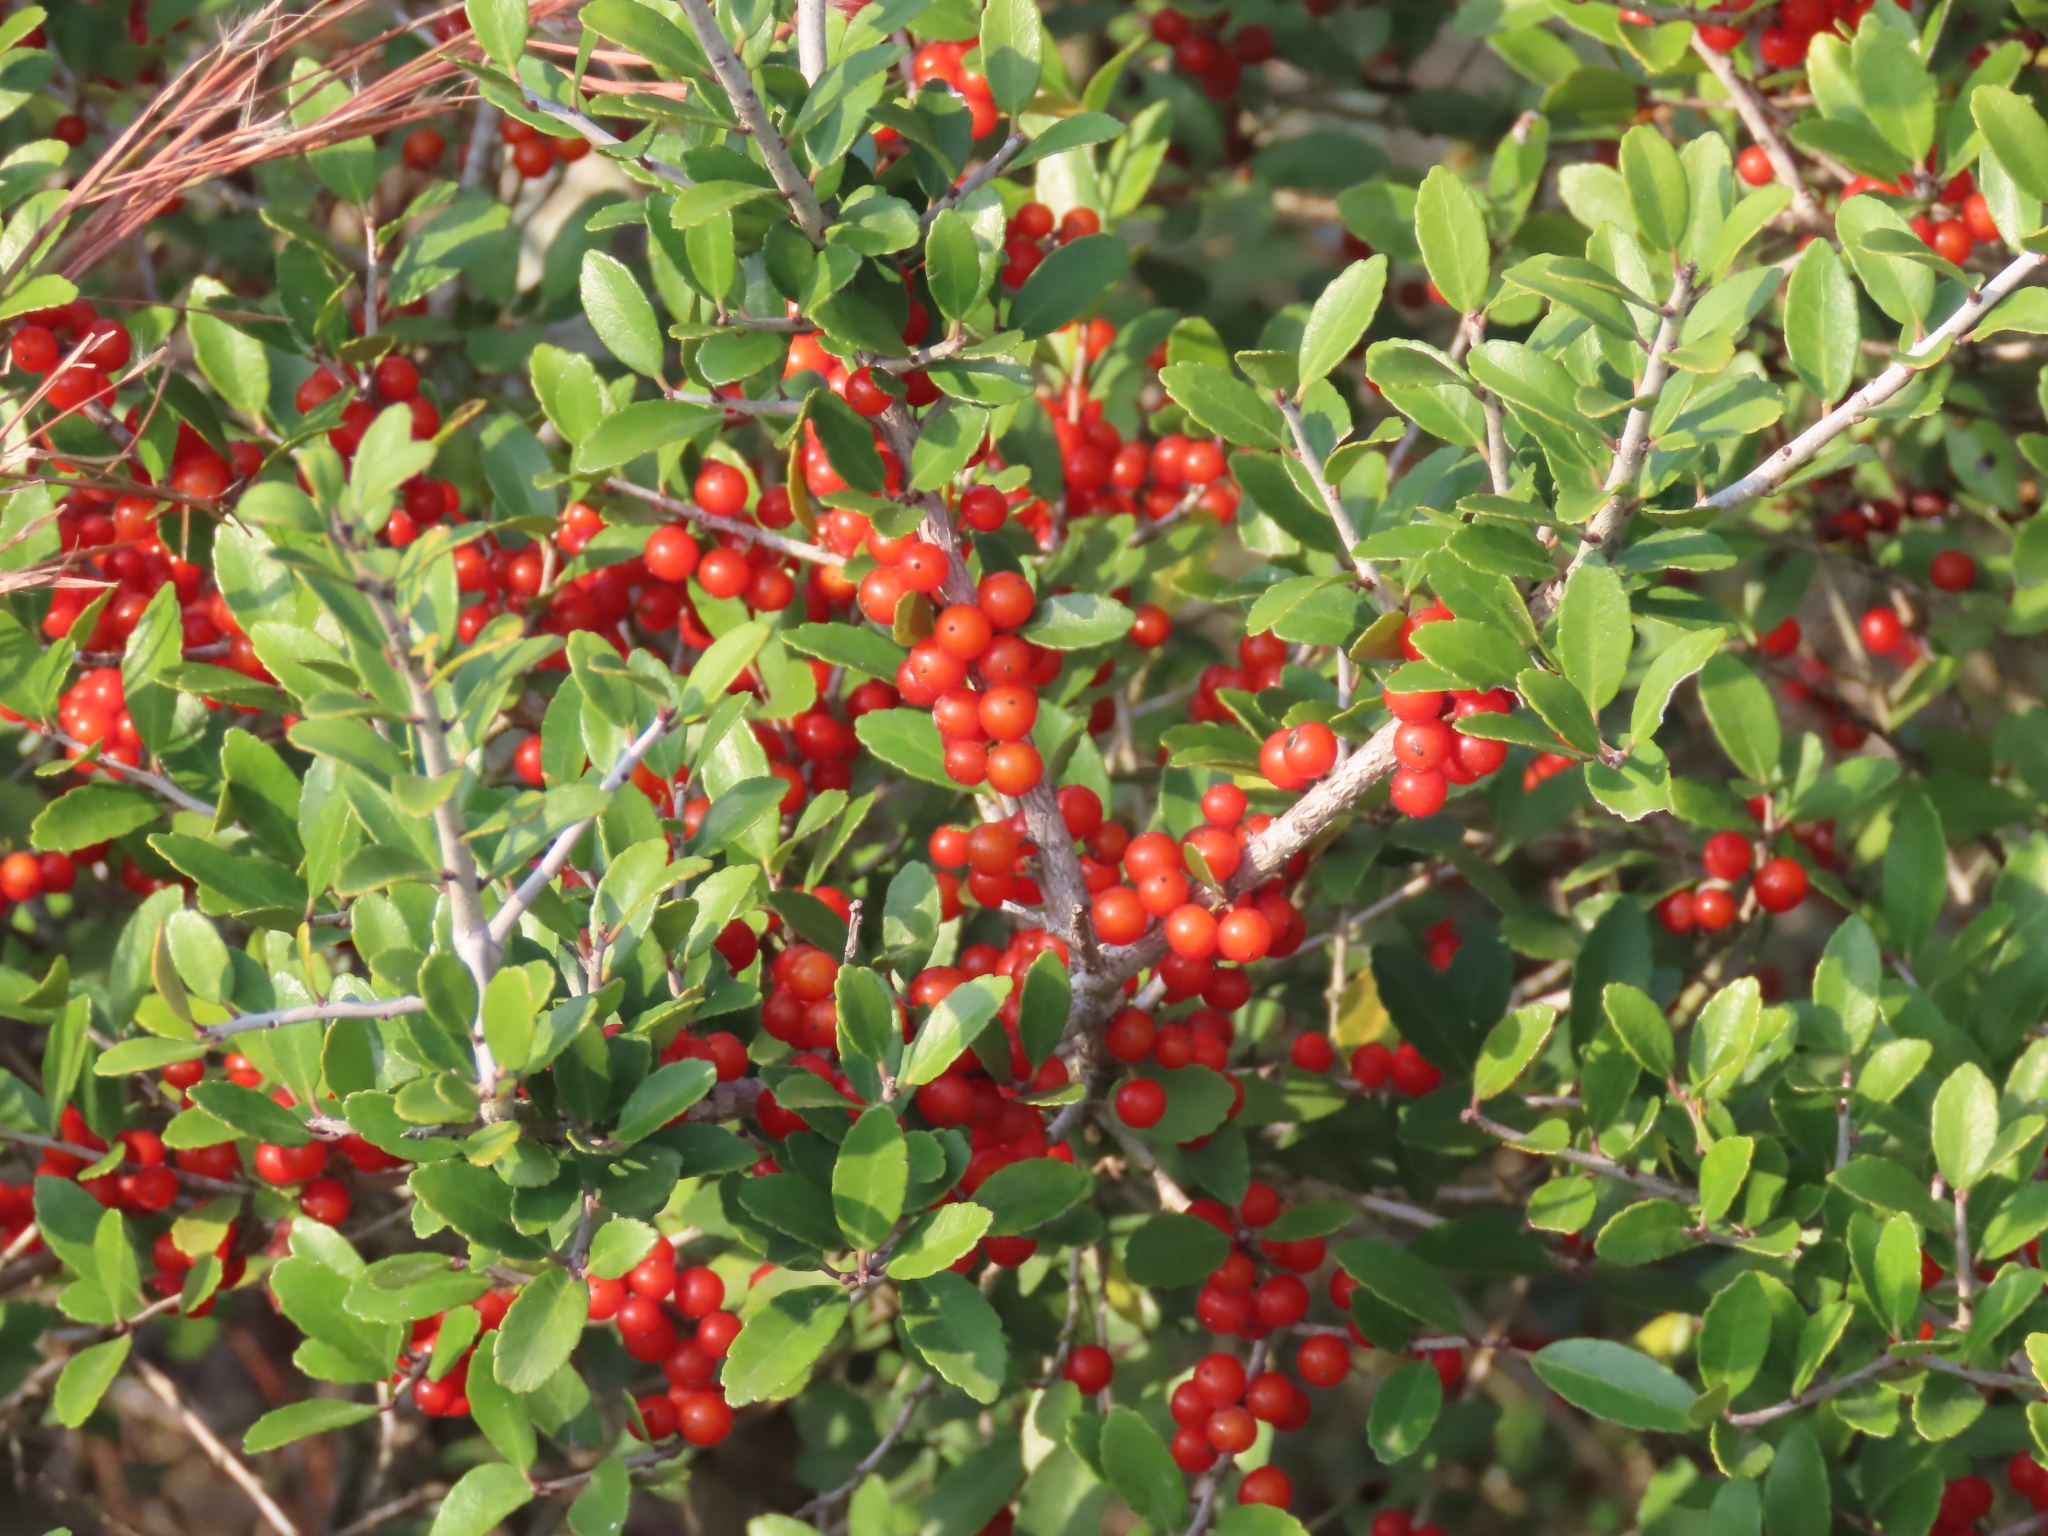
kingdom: Plantae
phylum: Tracheophyta
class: Magnoliopsida
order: Aquifoliales
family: Aquifoliaceae
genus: Ilex
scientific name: Ilex vomitoria
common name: Yaupon holly
